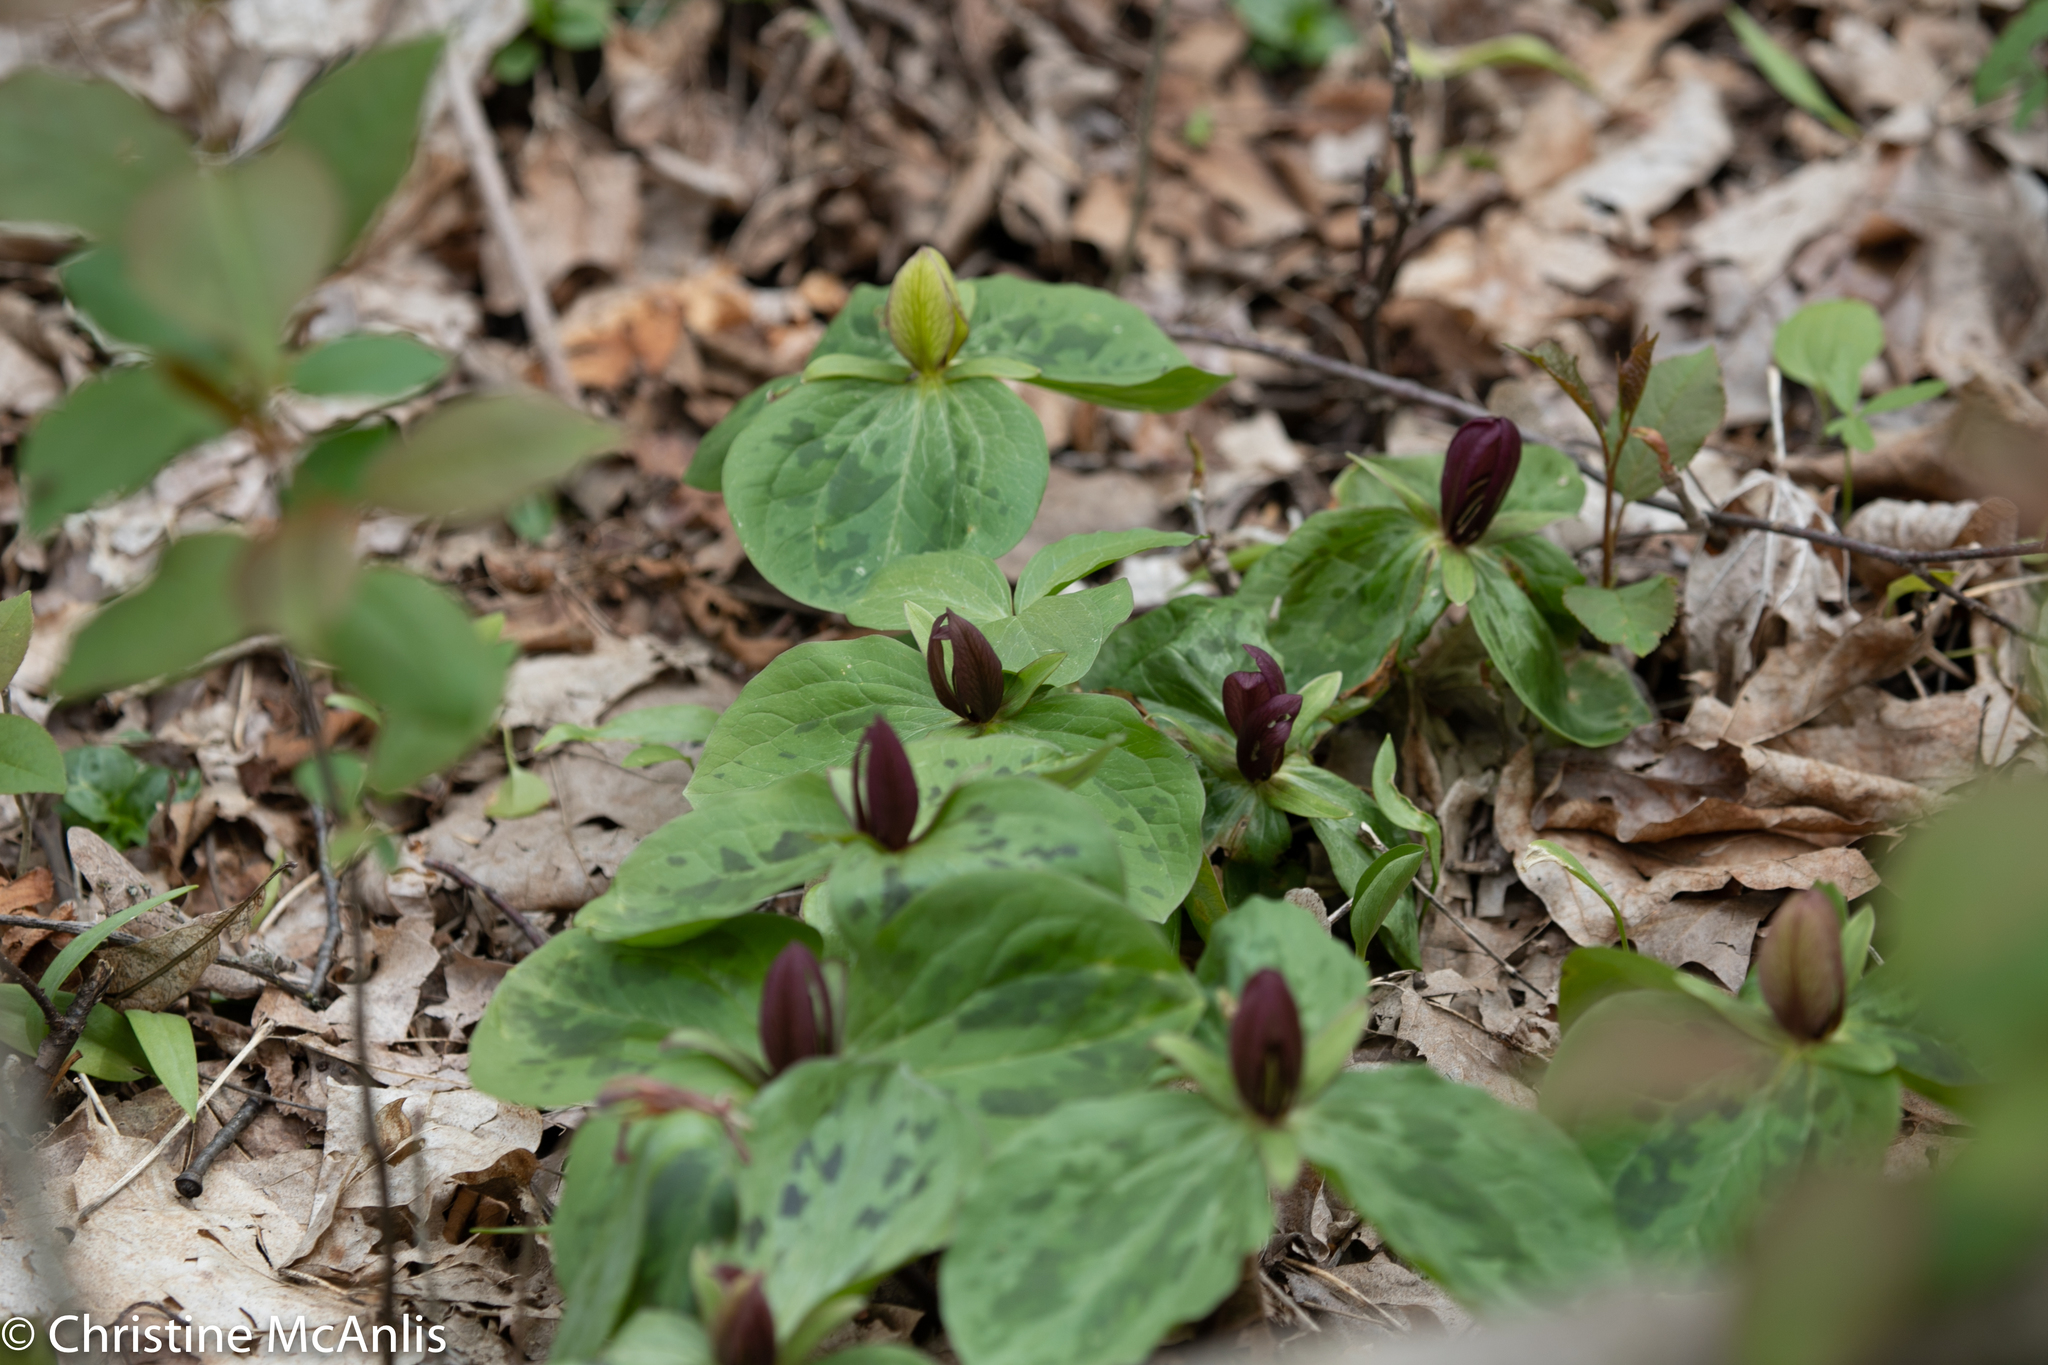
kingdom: Plantae
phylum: Tracheophyta
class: Liliopsida
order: Liliales
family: Melanthiaceae
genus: Trillium
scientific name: Trillium sessile
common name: Sessile trillium
